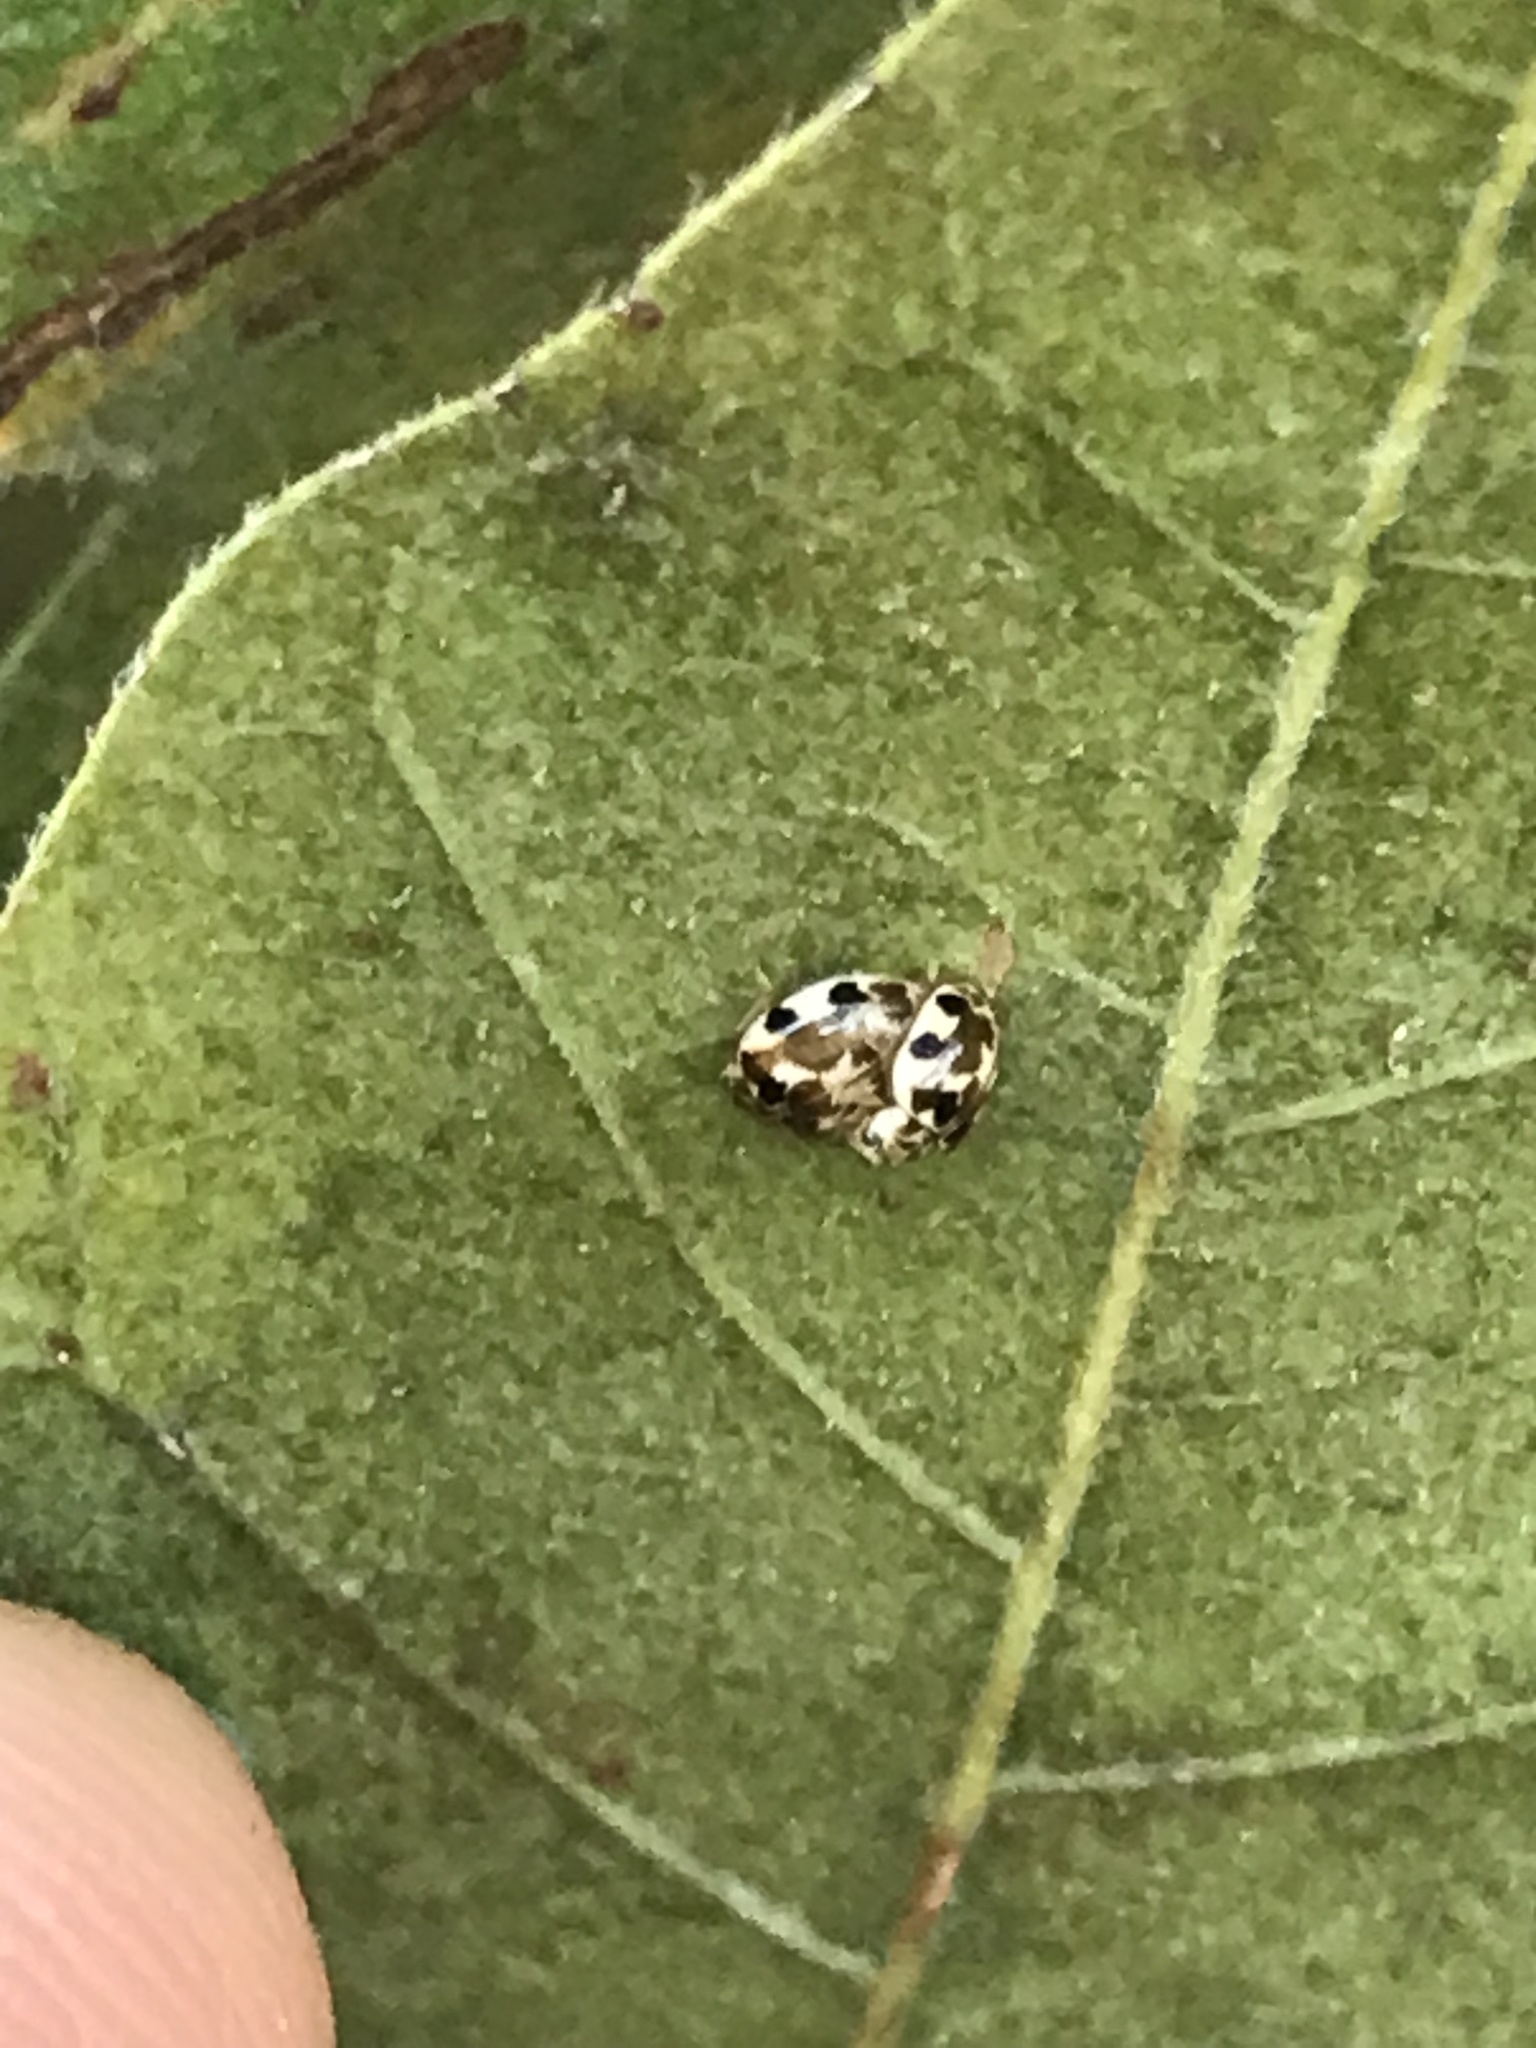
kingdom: Animalia
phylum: Arthropoda
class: Insecta
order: Coleoptera
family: Coccinellidae
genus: Psyllobora
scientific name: Psyllobora vigintimaculata
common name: Ladybird beetle
